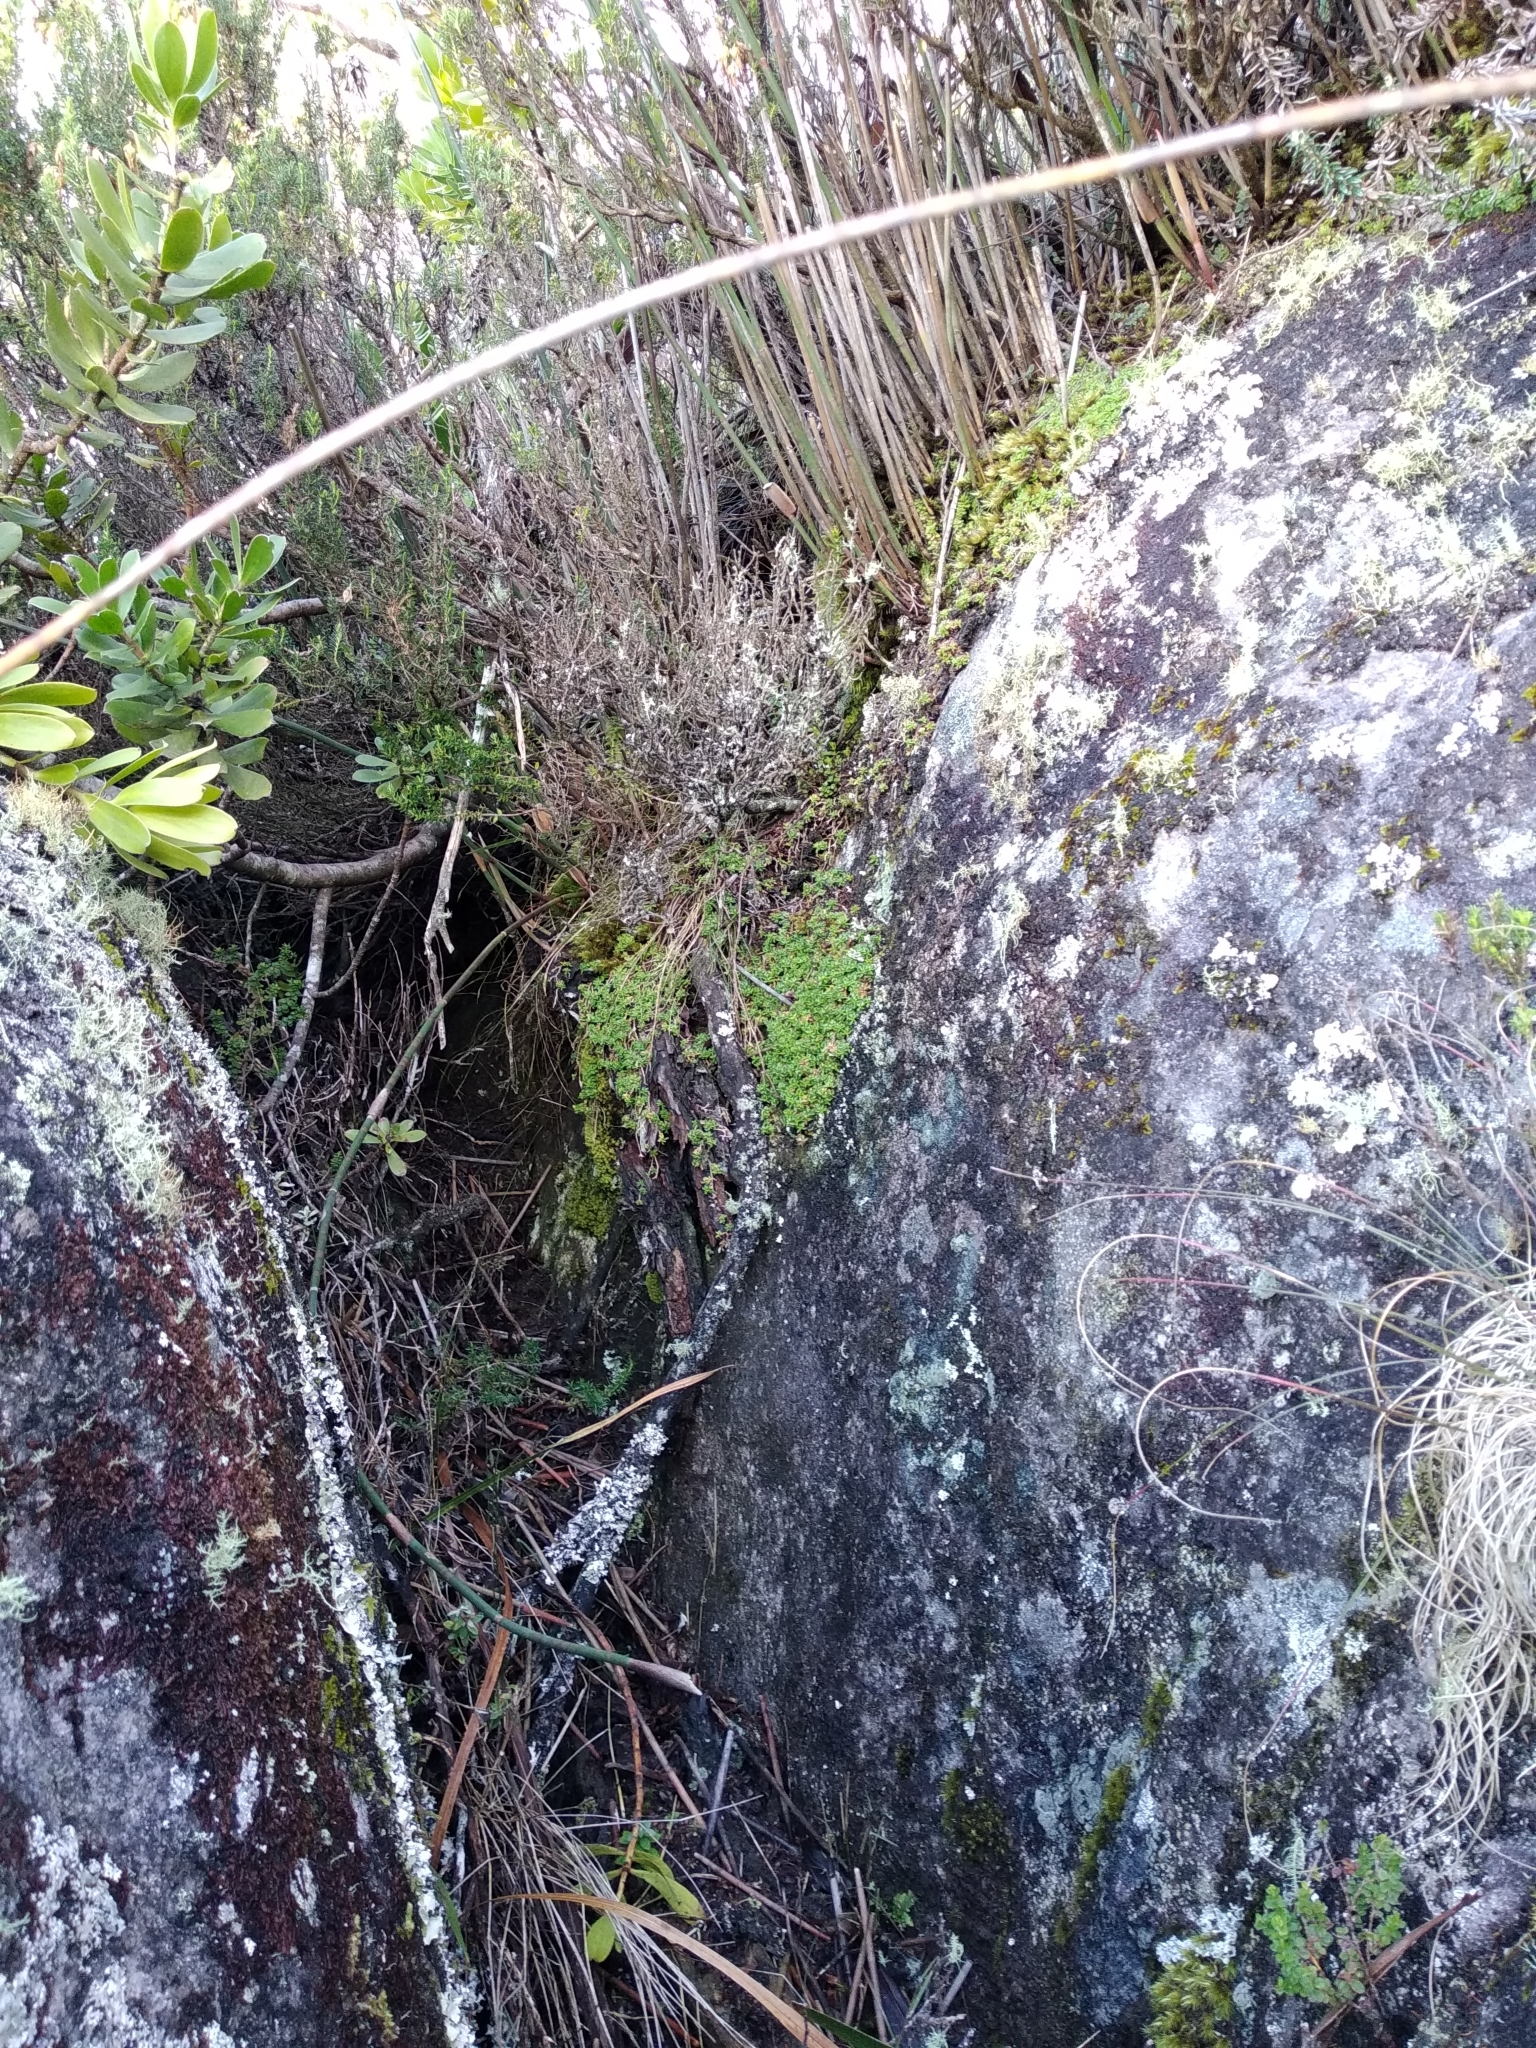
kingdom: Plantae
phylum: Tracheophyta
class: Magnoliopsida
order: Asterales
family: Campanulaceae
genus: Roella
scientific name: Roella muscosa
